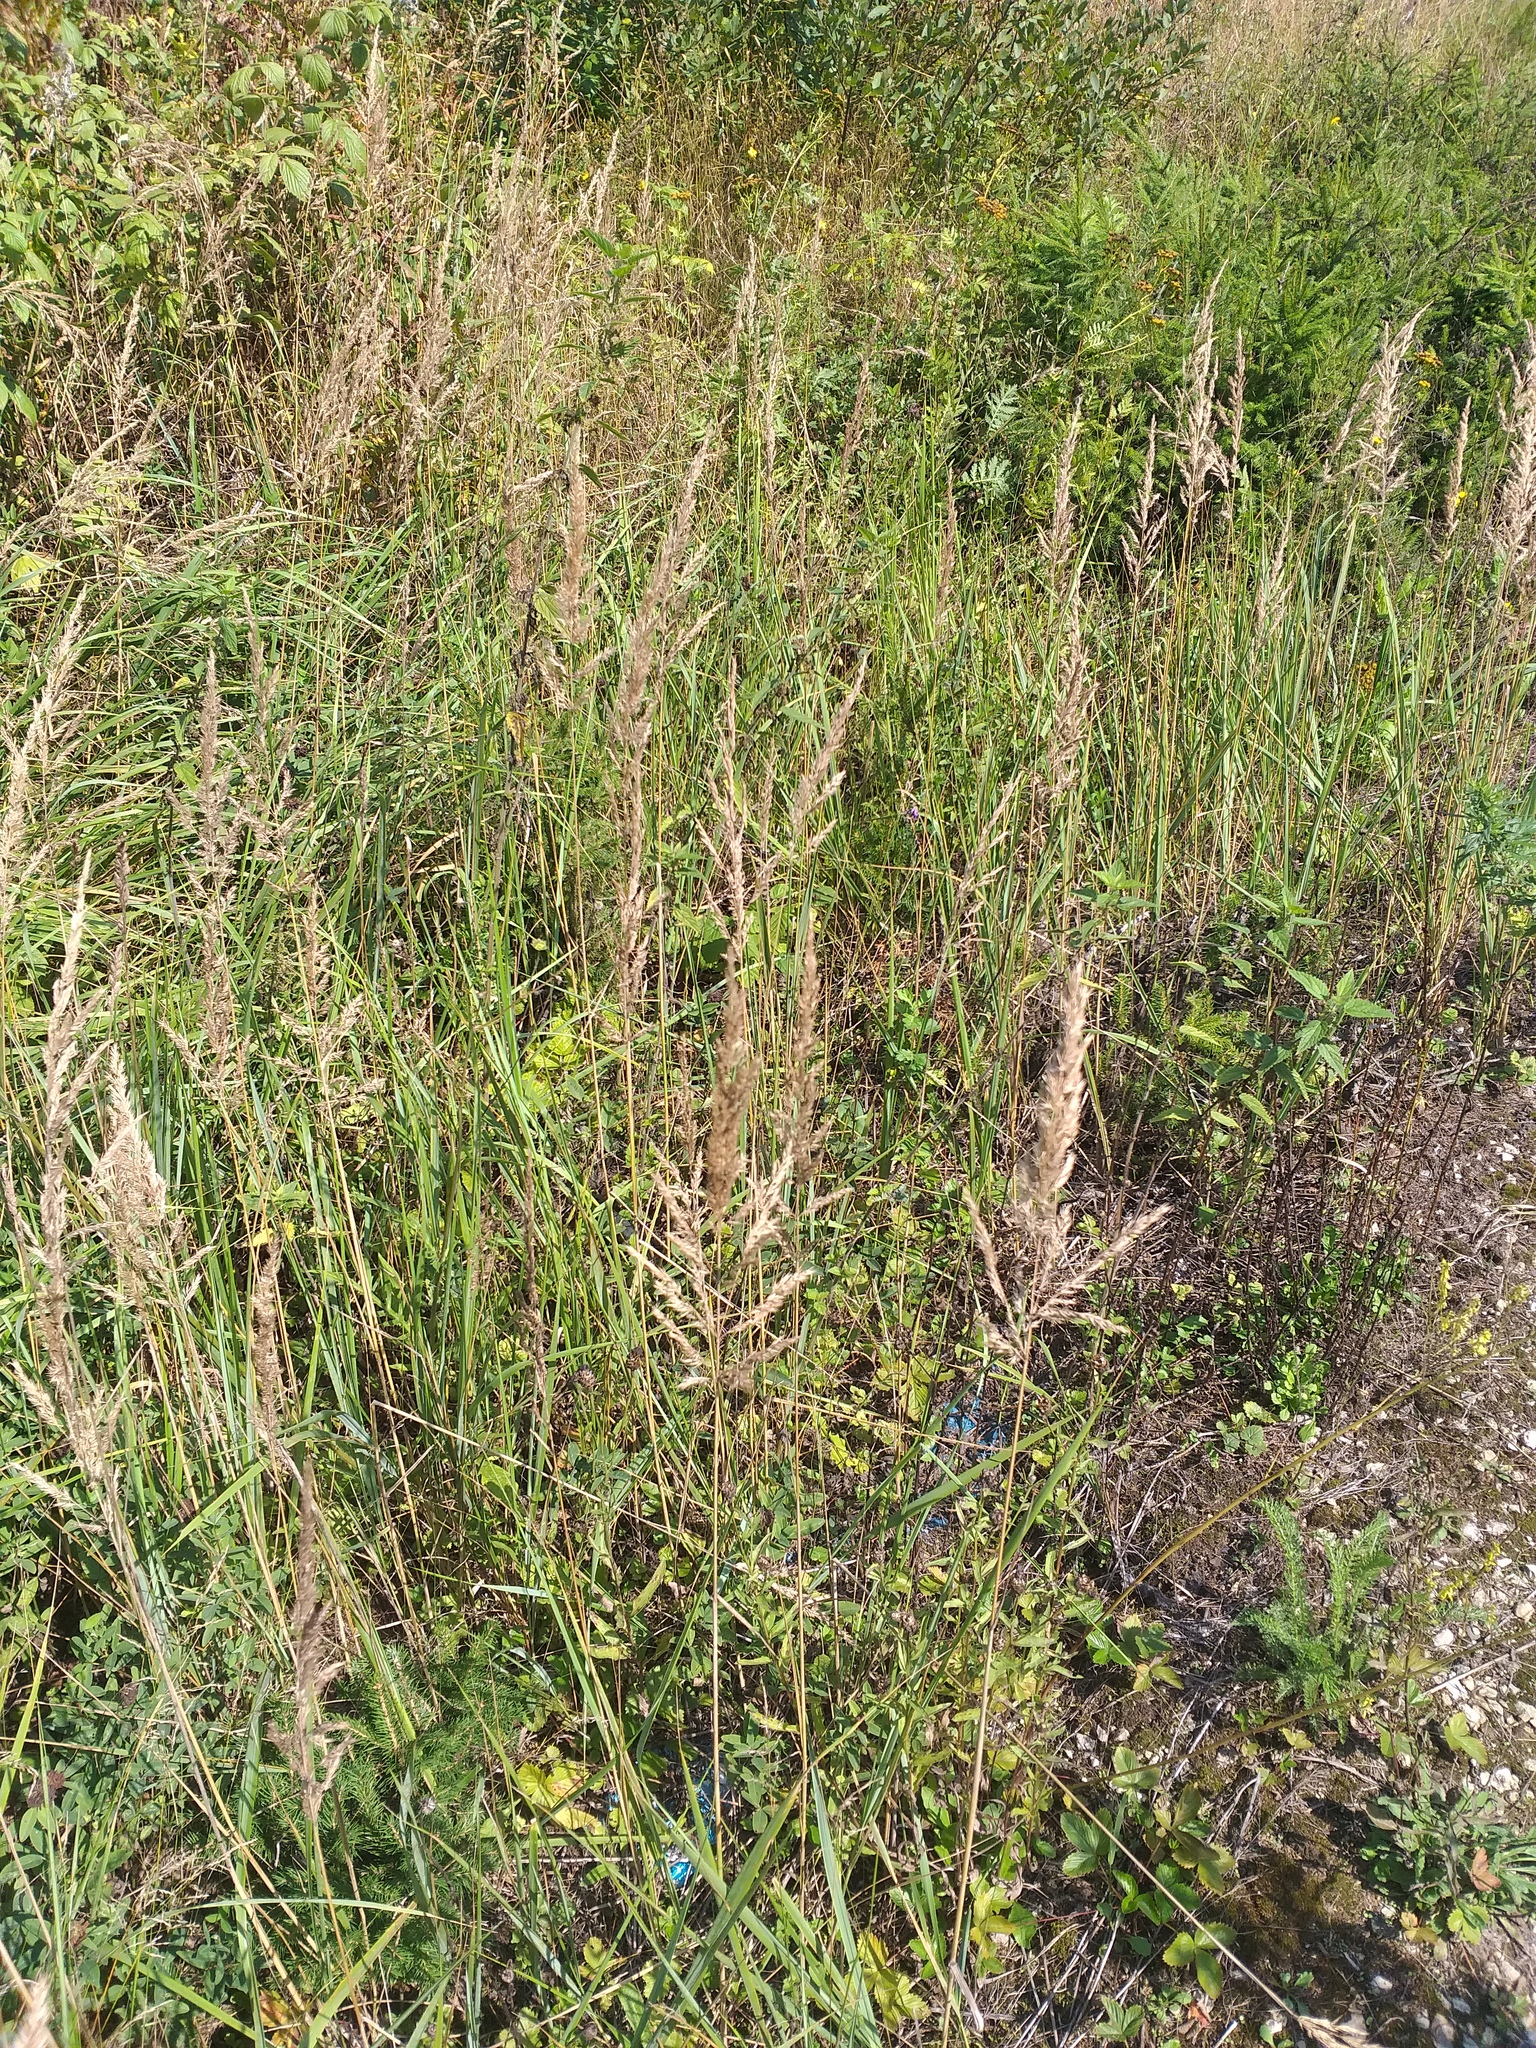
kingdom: Plantae
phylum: Tracheophyta
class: Liliopsida
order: Poales
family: Poaceae
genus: Calamagrostis
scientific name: Calamagrostis epigejos
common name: Wood small-reed
